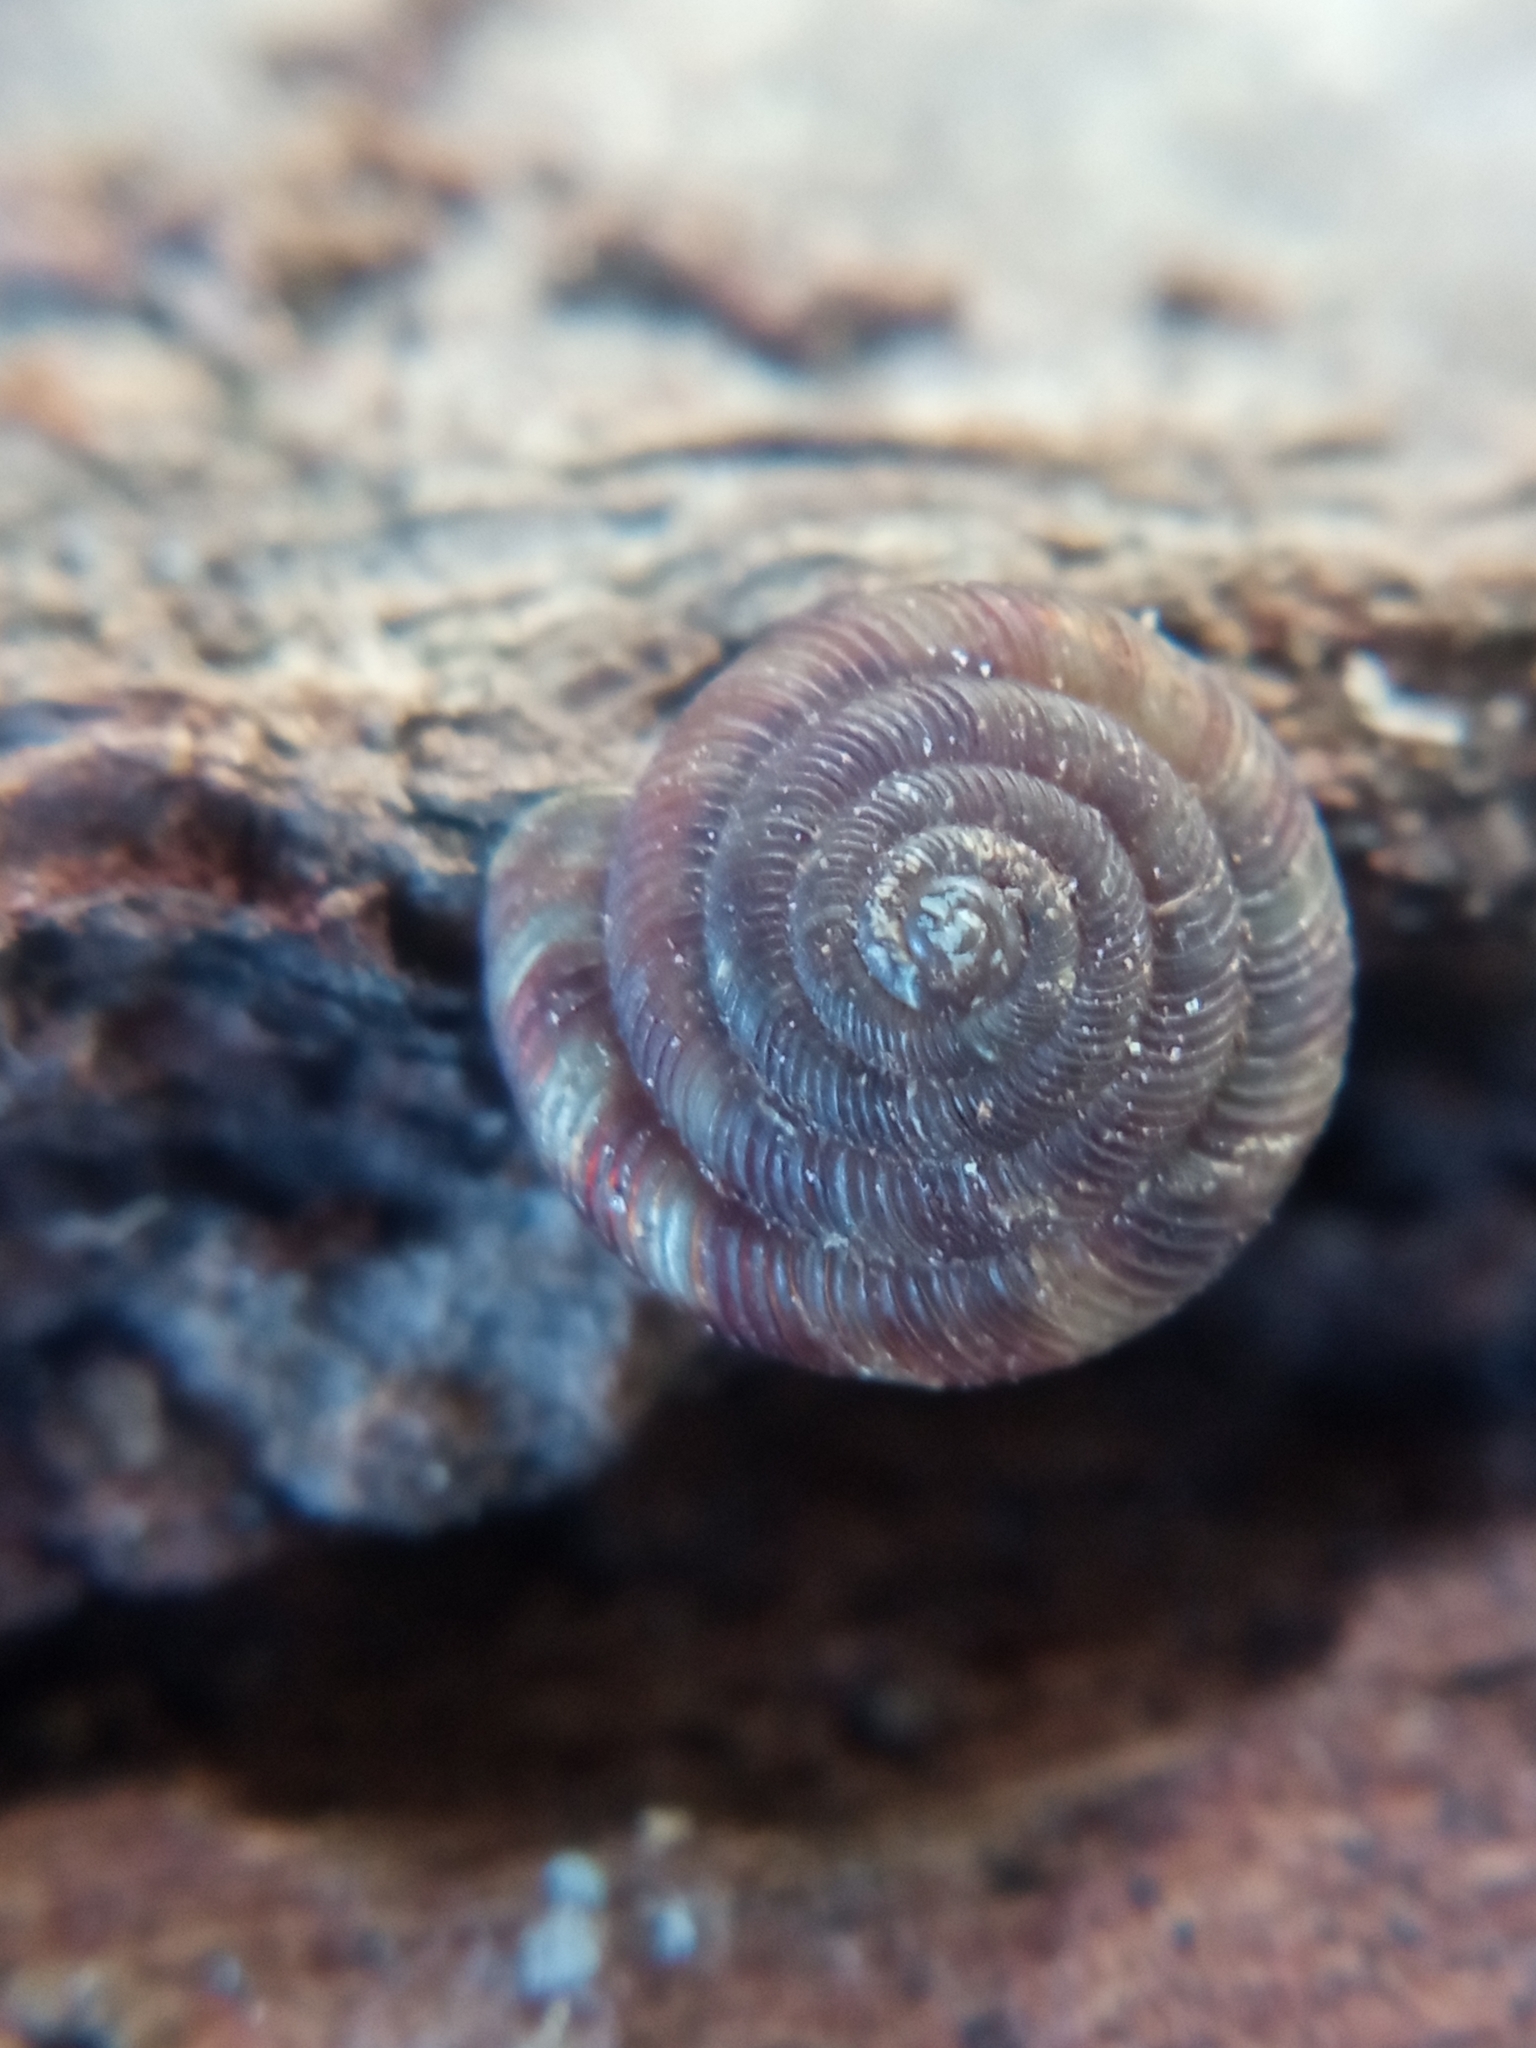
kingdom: Animalia
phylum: Mollusca
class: Gastropoda
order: Stylommatophora
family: Discidae
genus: Discus
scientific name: Discus rotundatus
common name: Rounded snail
